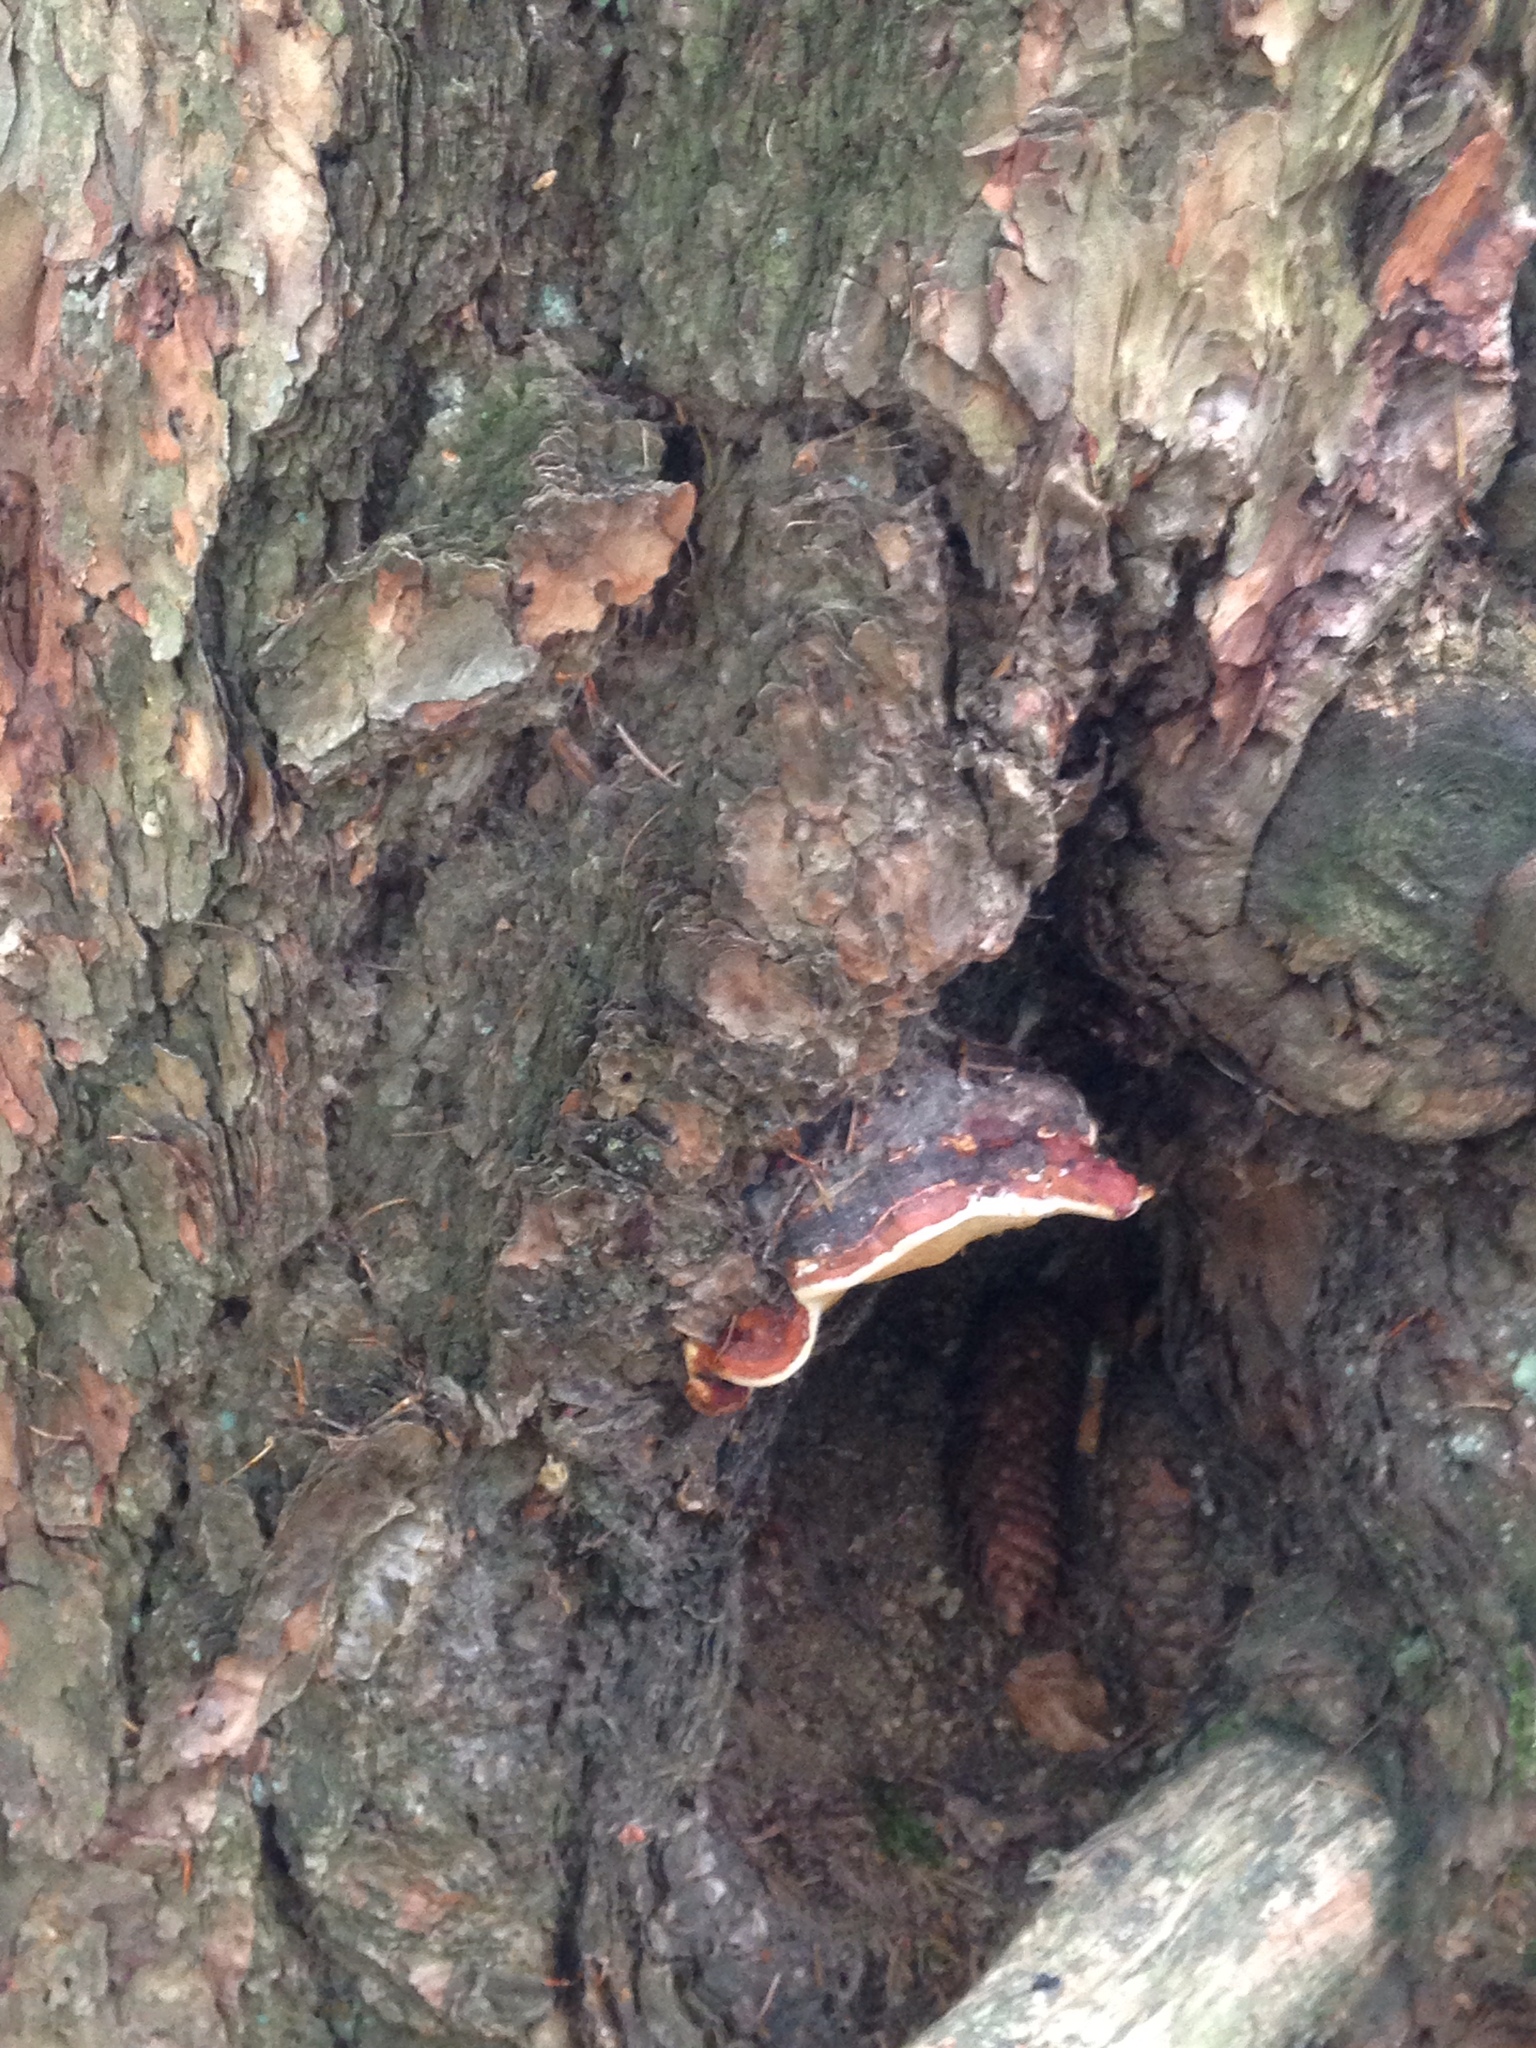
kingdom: Fungi
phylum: Basidiomycota
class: Agaricomycetes
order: Polyporales
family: Fomitopsidaceae
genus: Fomitopsis
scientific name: Fomitopsis pinicola
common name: Red-belted bracket
